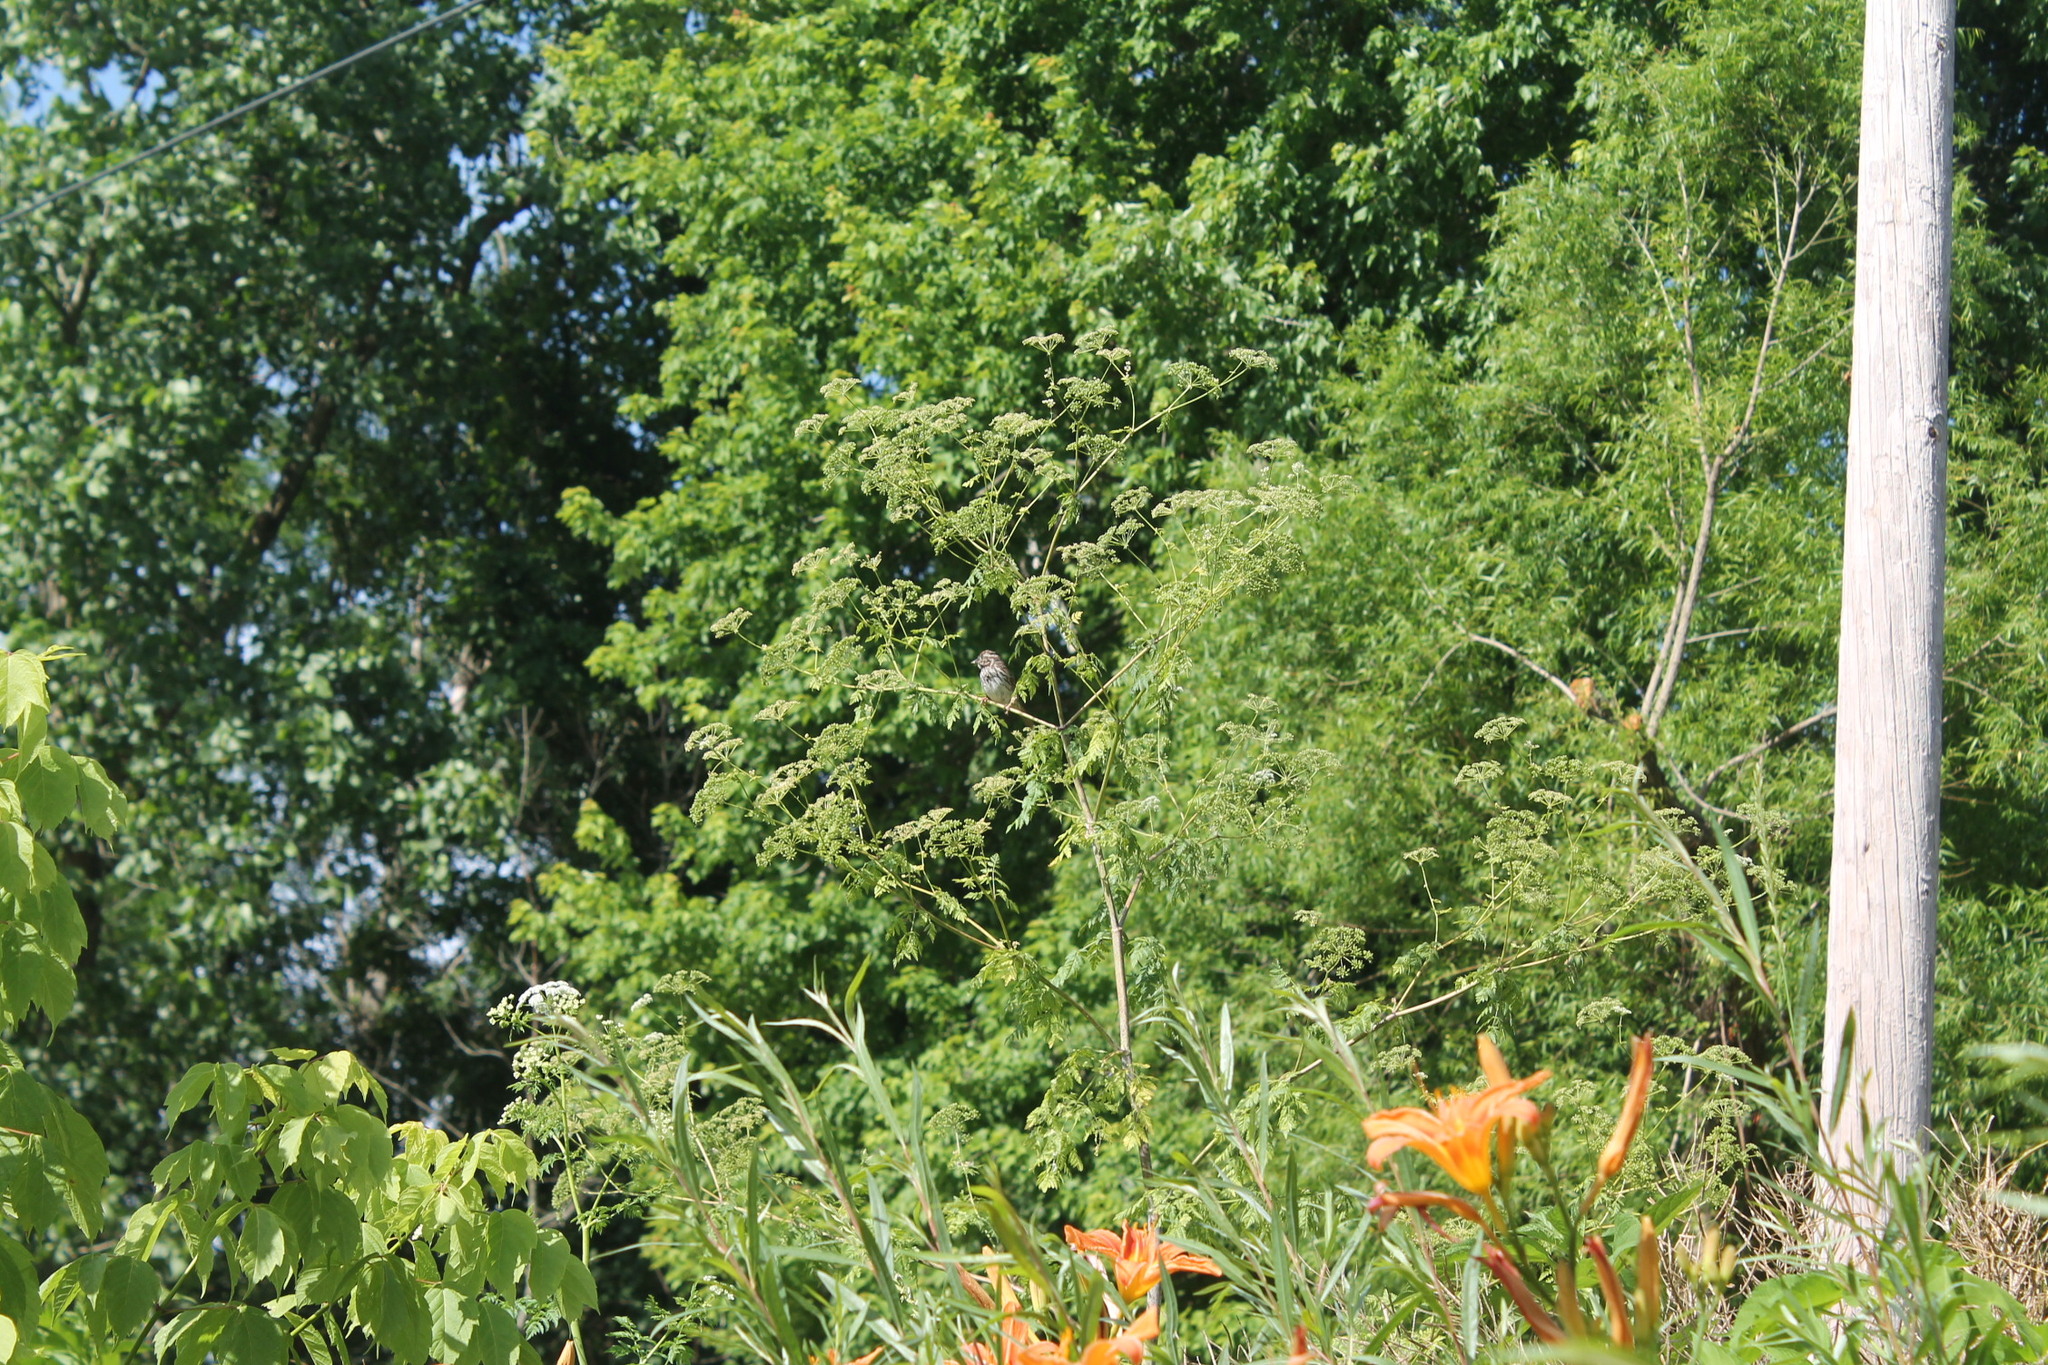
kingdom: Animalia
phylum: Chordata
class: Aves
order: Passeriformes
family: Passerellidae
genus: Melospiza
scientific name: Melospiza melodia
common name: Song sparrow
